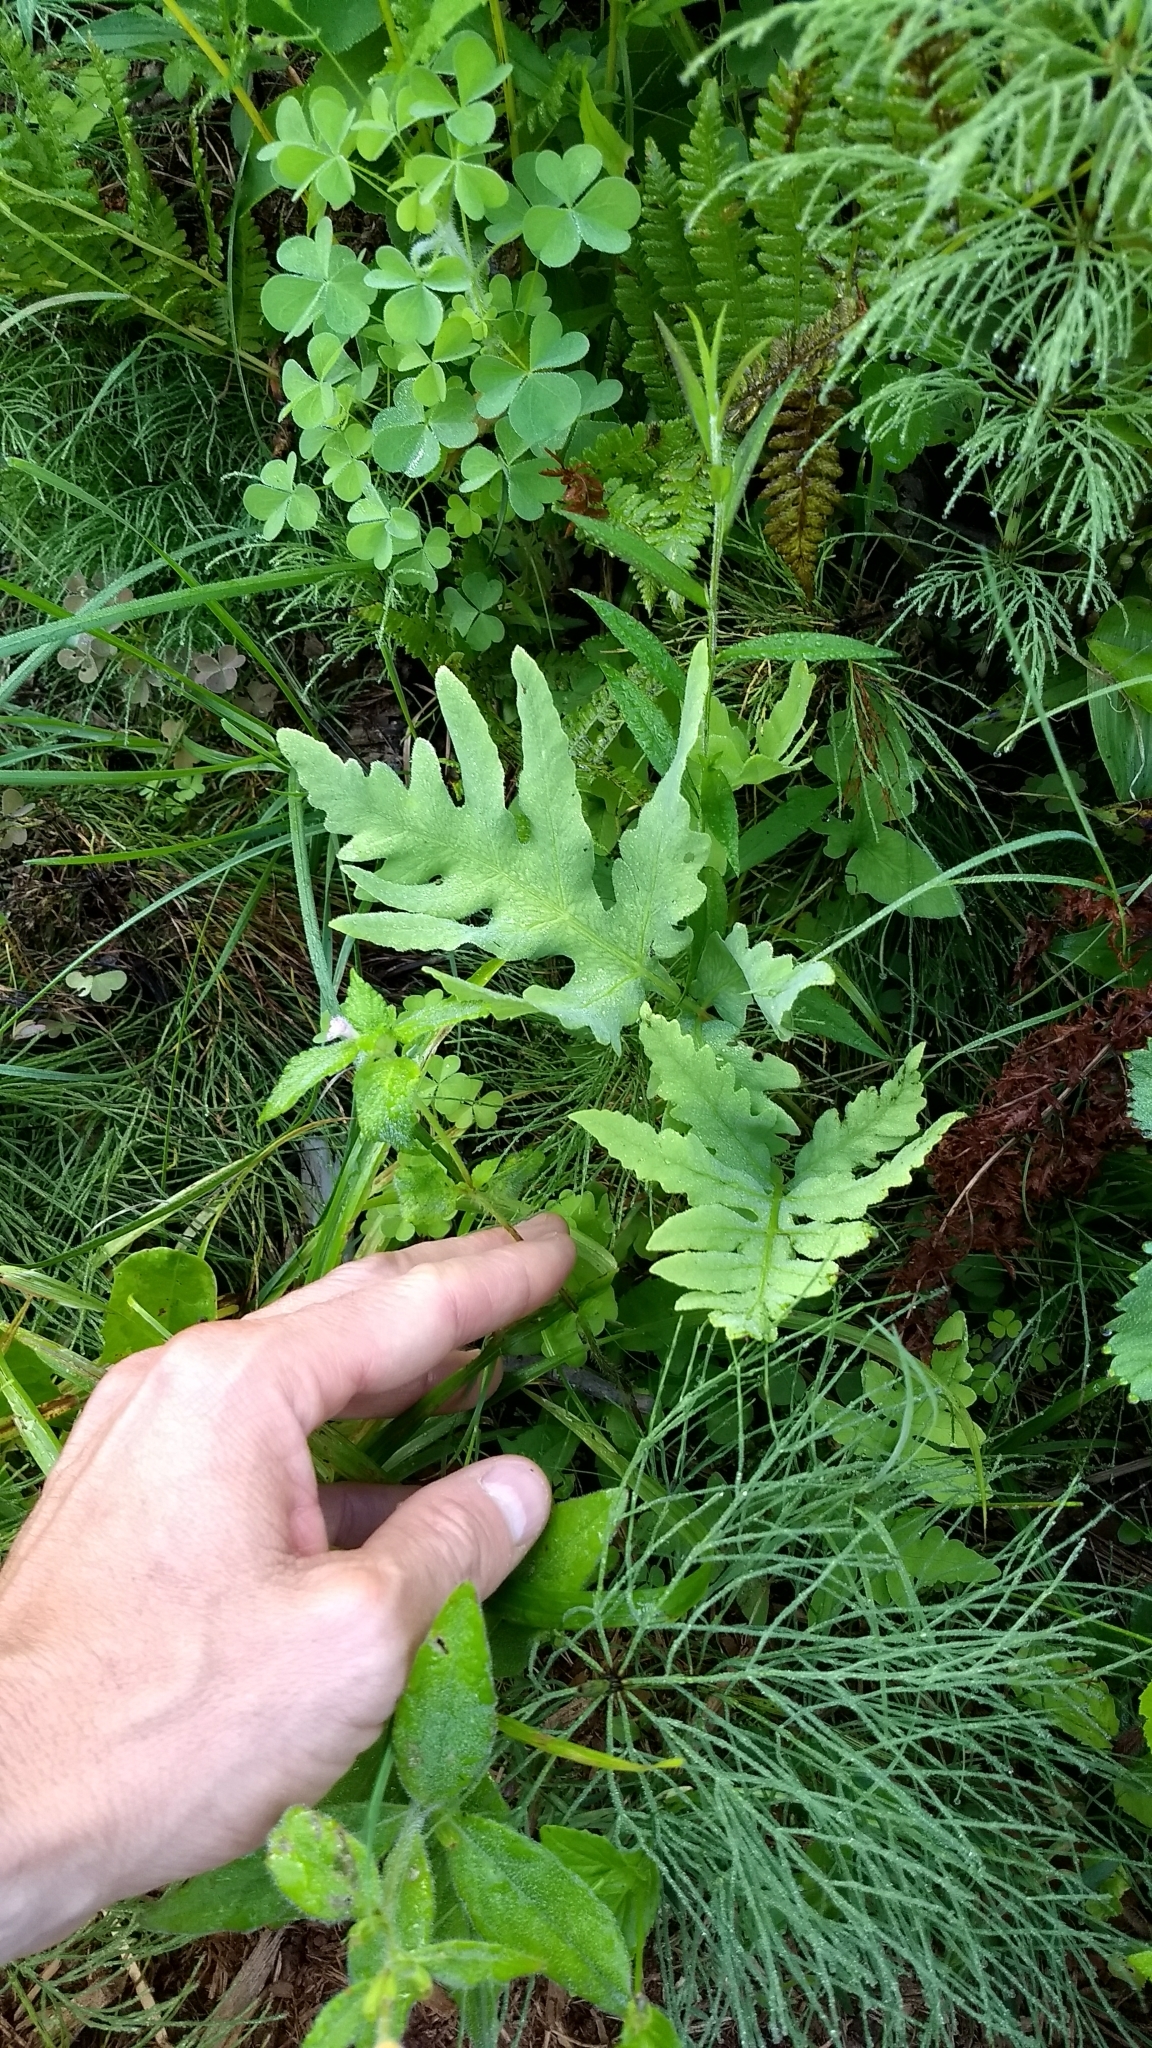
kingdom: Plantae
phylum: Tracheophyta
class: Magnoliopsida
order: Lamiales
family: Lamiaceae
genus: Galeopsis
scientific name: Galeopsis bifida
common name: Bifid hemp-nettle
